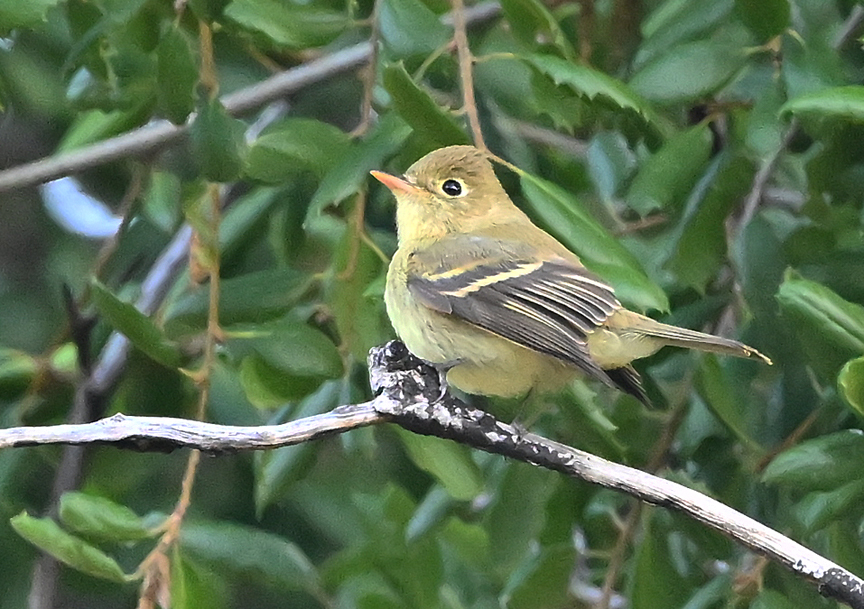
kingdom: Animalia
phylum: Chordata
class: Aves
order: Passeriformes
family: Tyrannidae
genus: Empidonax
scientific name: Empidonax difficilis
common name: Pacific-slope flycatcher
